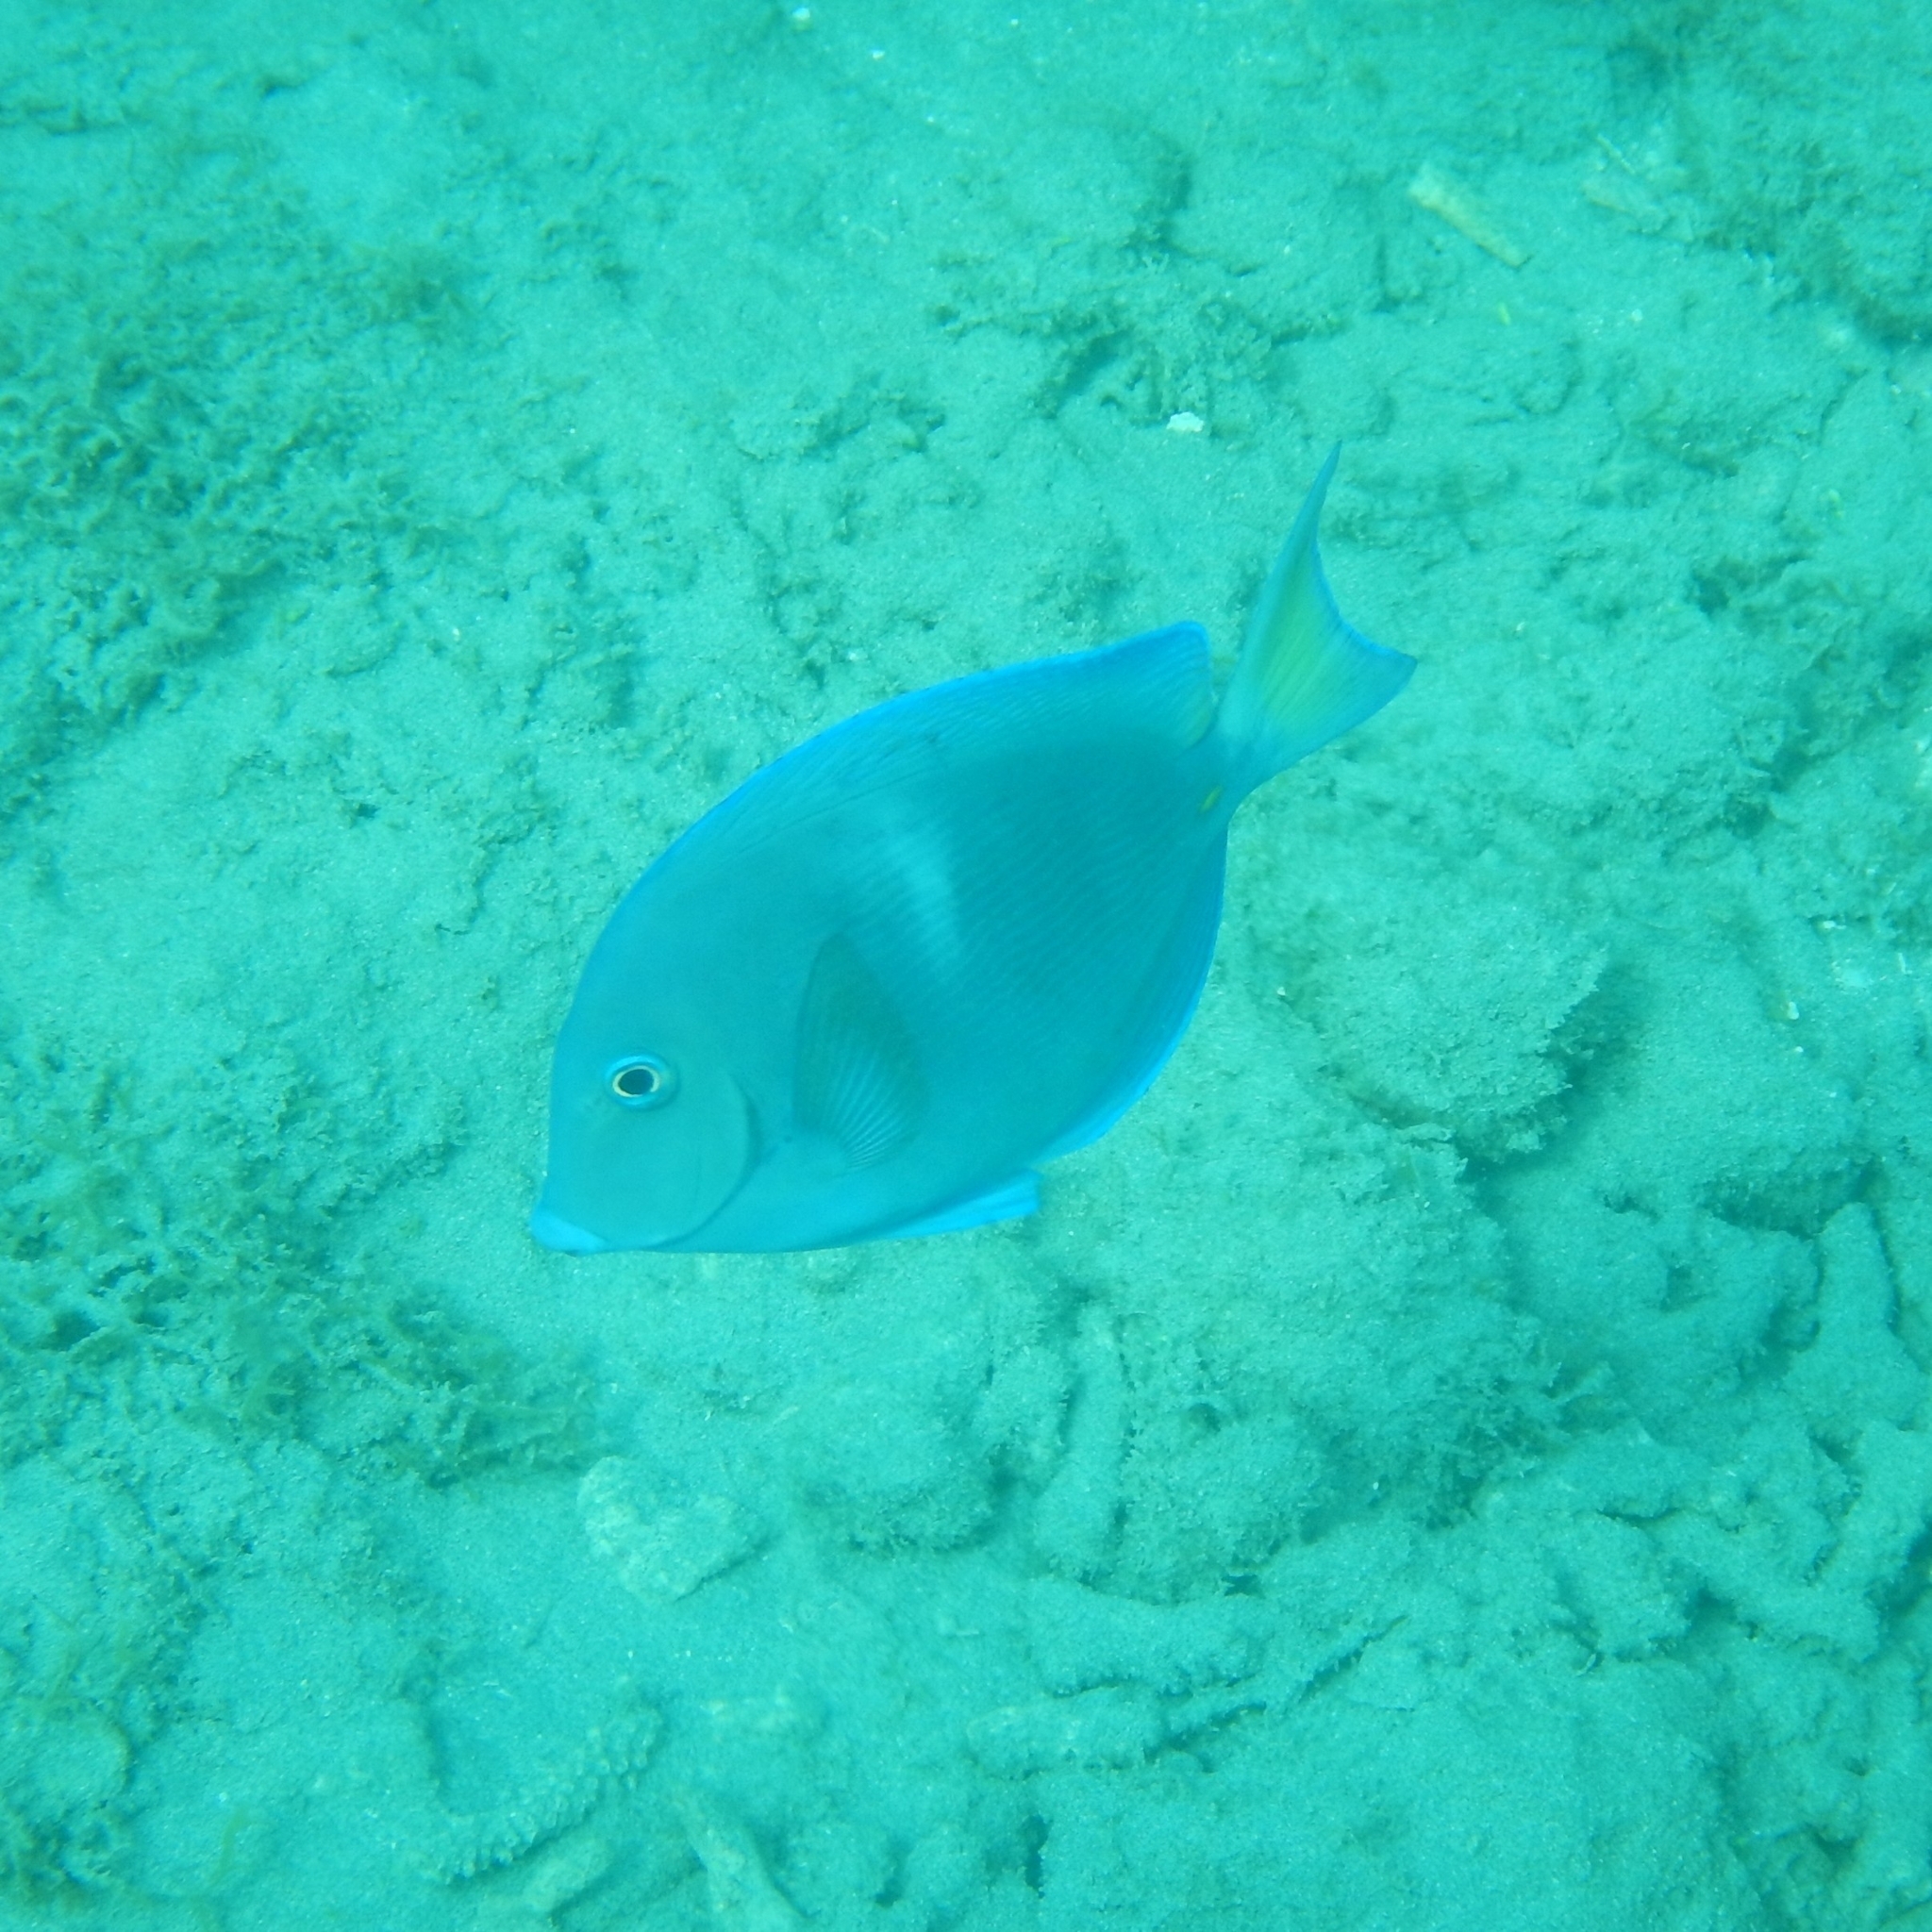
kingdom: Animalia
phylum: Chordata
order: Perciformes
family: Acanthuridae
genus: Acanthurus
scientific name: Acanthurus coeruleus
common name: Blue tang
